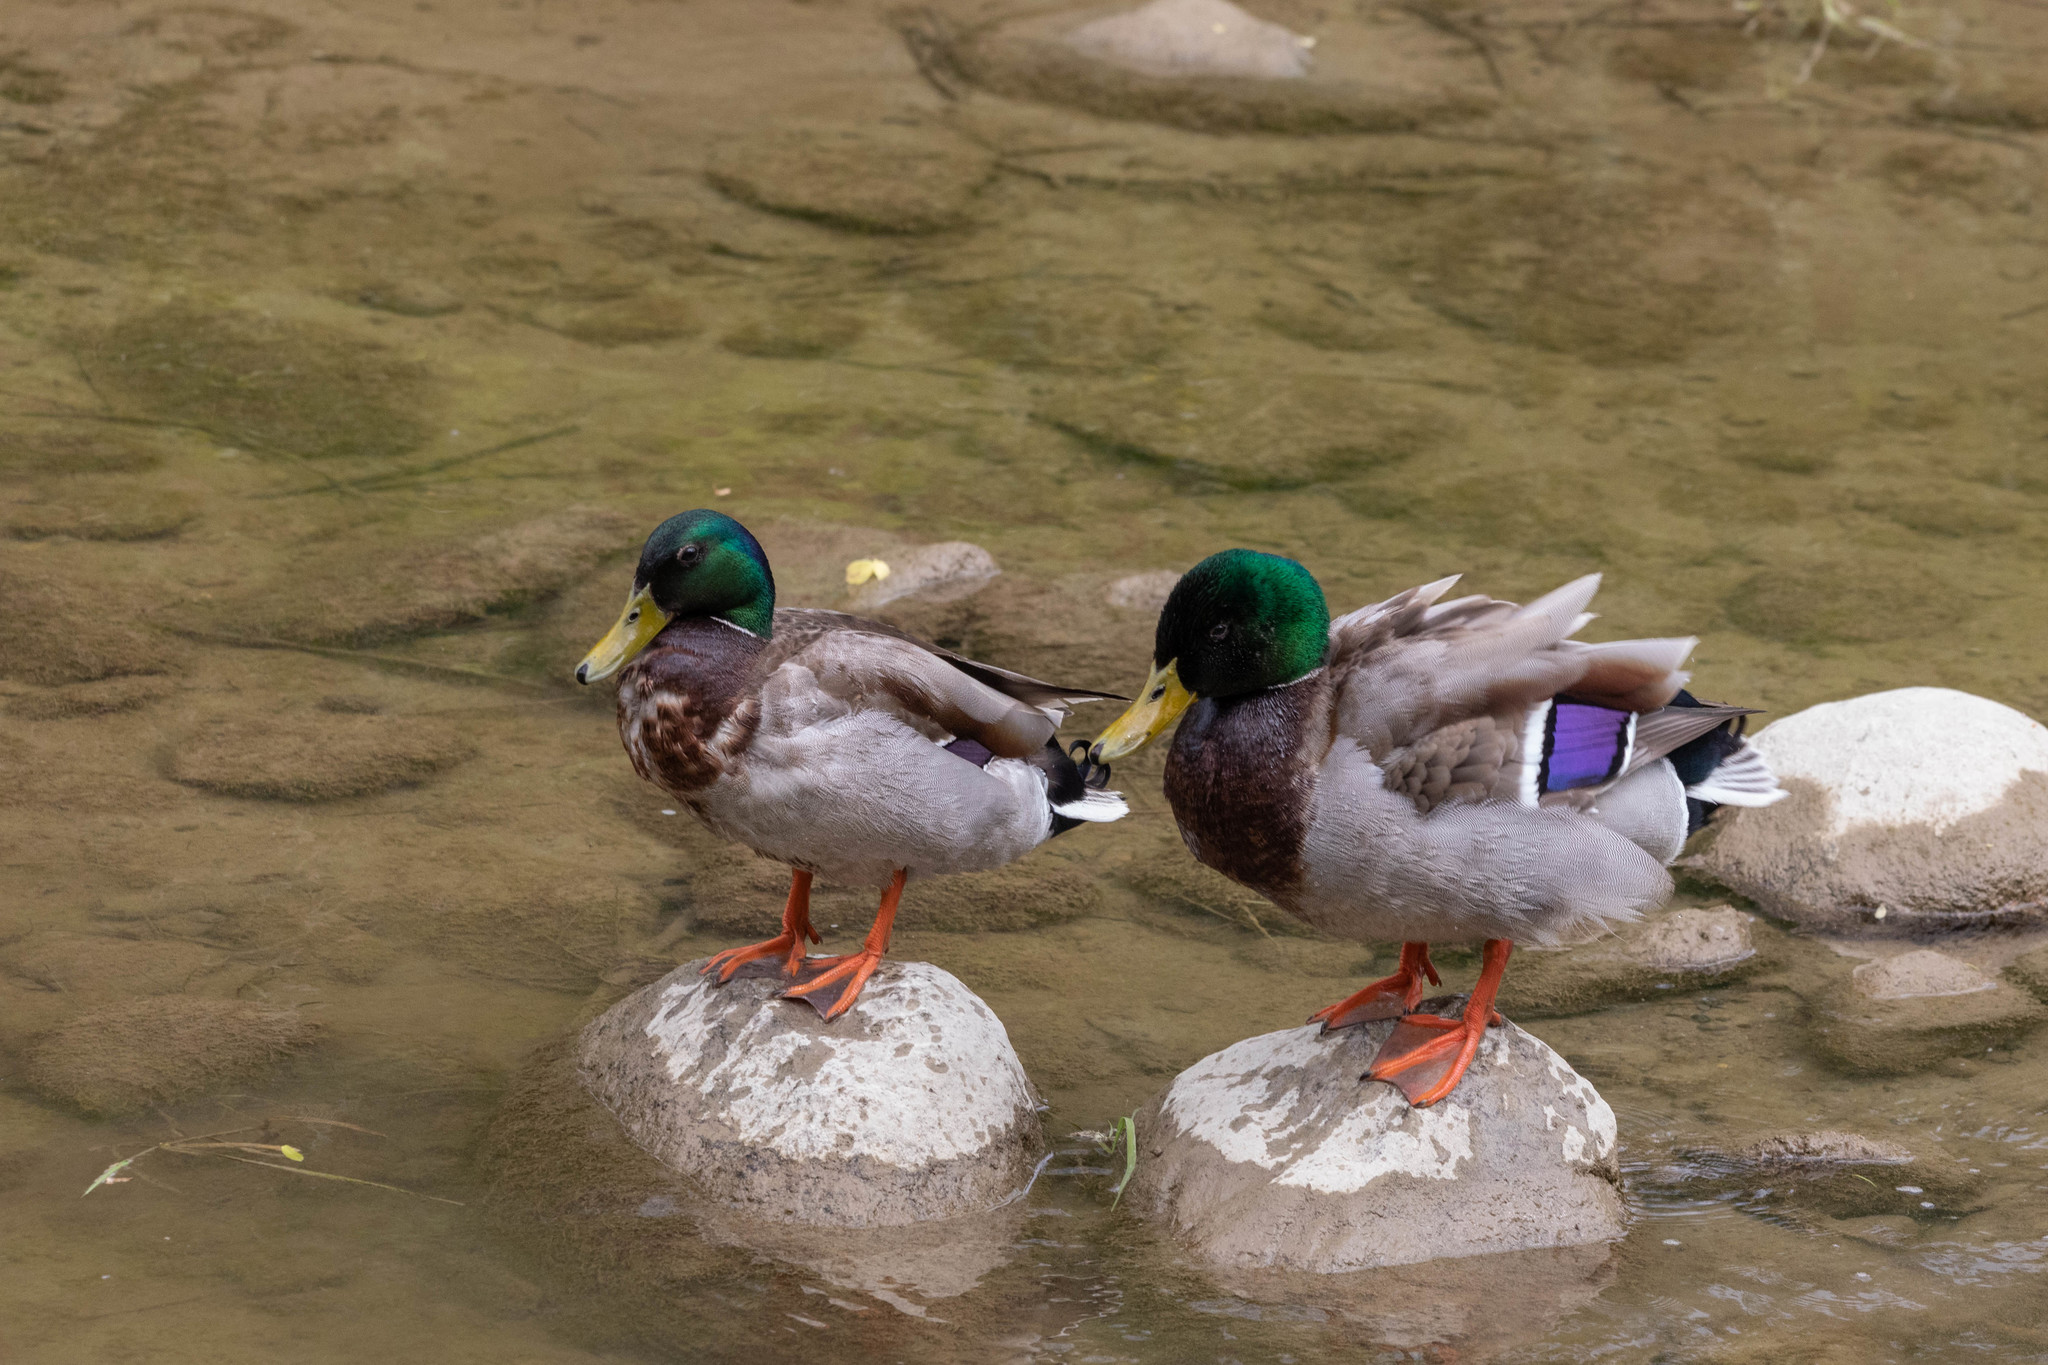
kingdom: Animalia
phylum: Chordata
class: Aves
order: Anseriformes
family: Anatidae
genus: Anas
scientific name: Anas platyrhynchos
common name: Mallard
